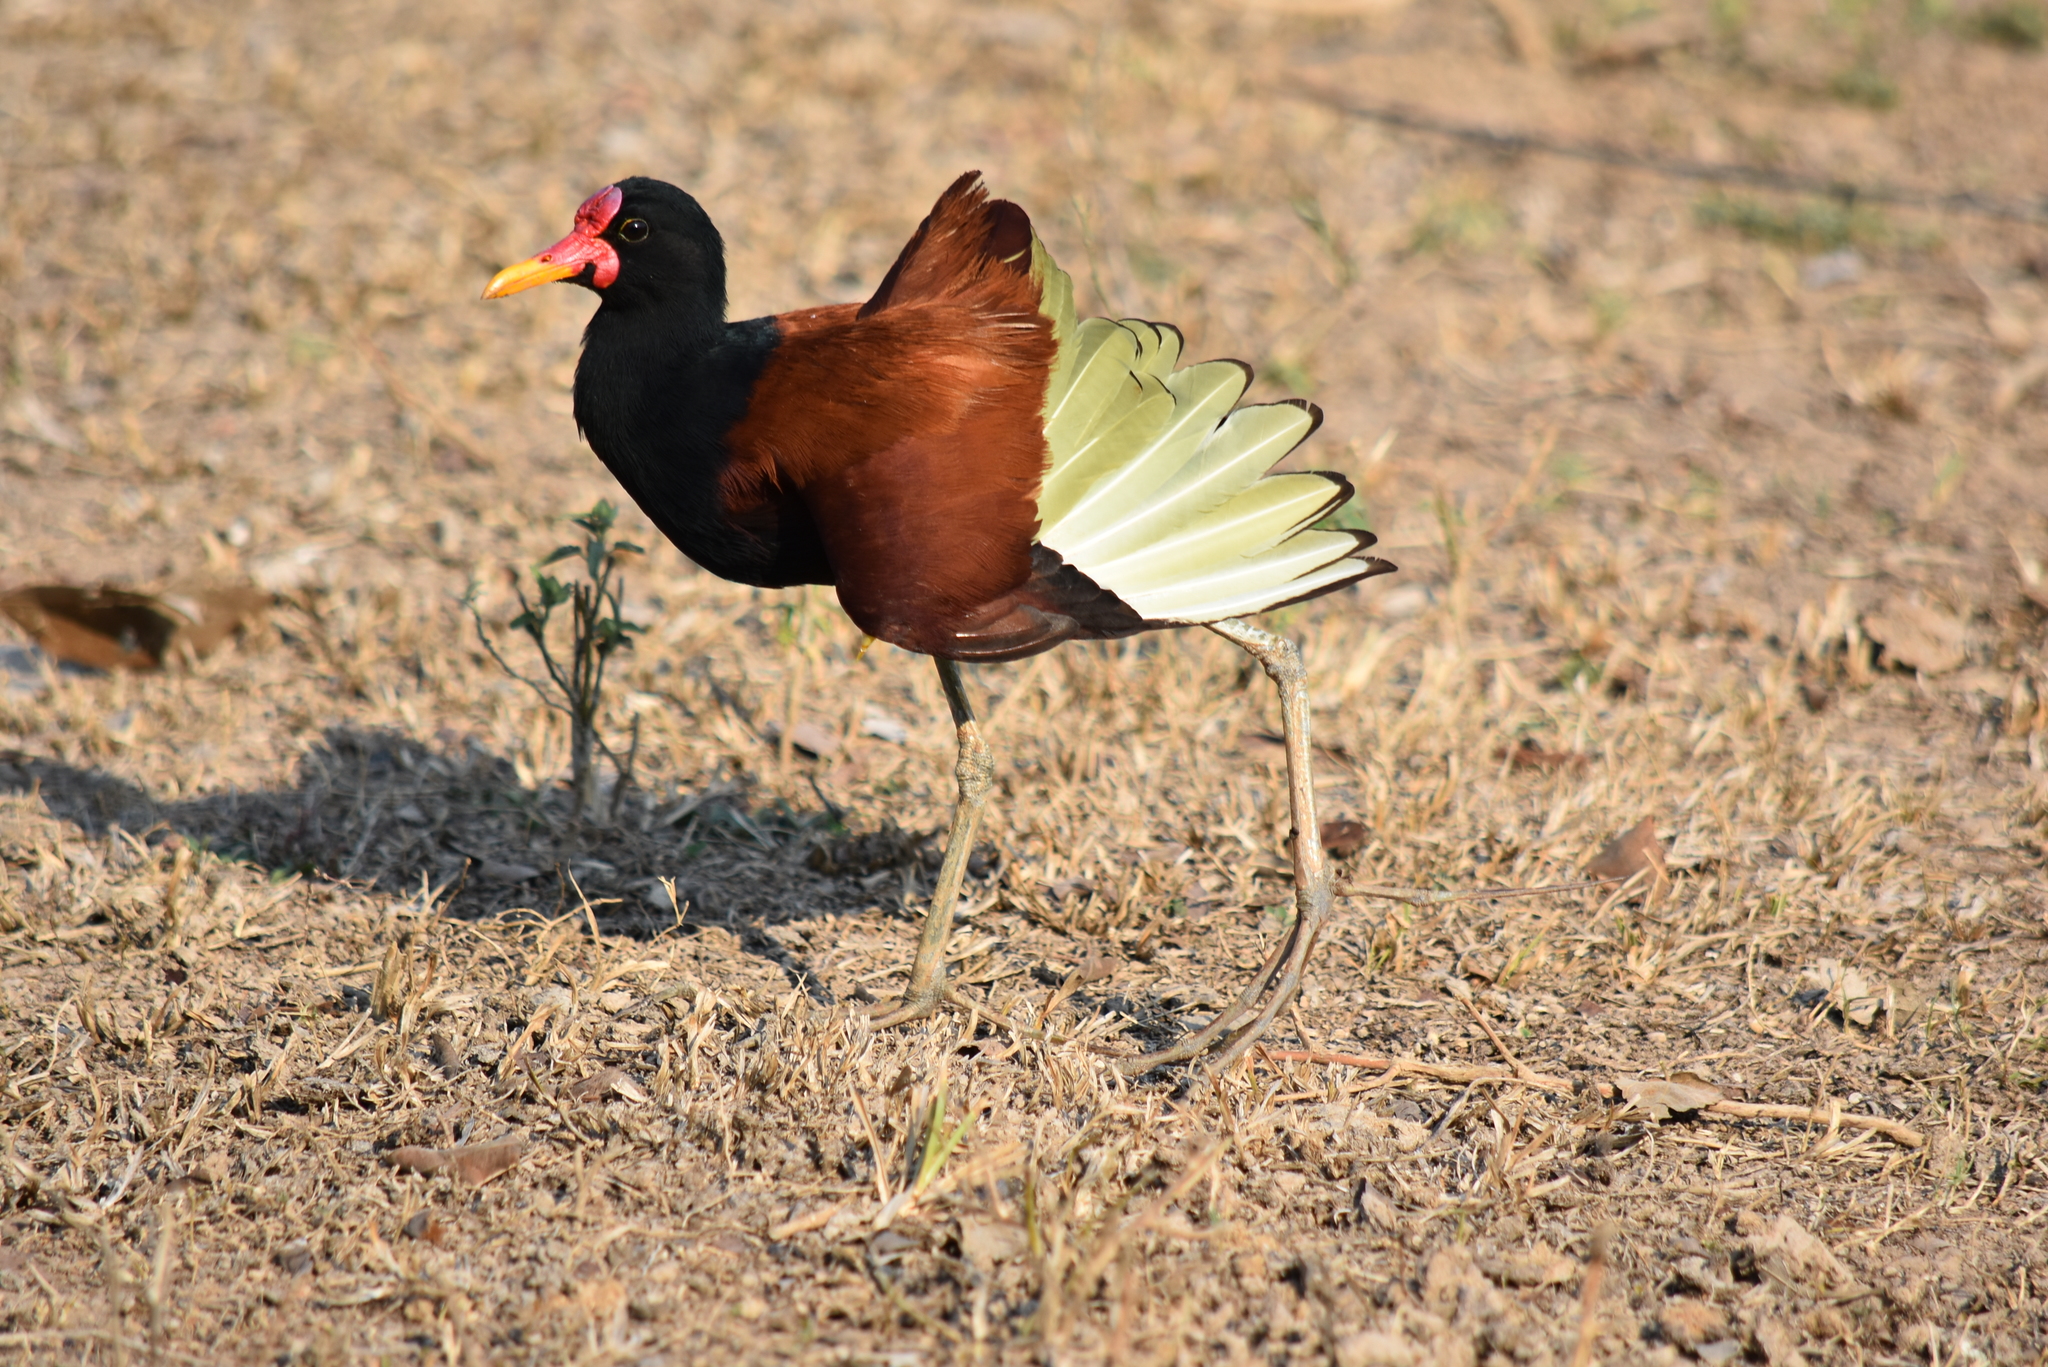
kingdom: Animalia
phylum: Chordata
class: Aves
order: Charadriiformes
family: Jacanidae
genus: Jacana
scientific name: Jacana jacana
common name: Wattled jacana
